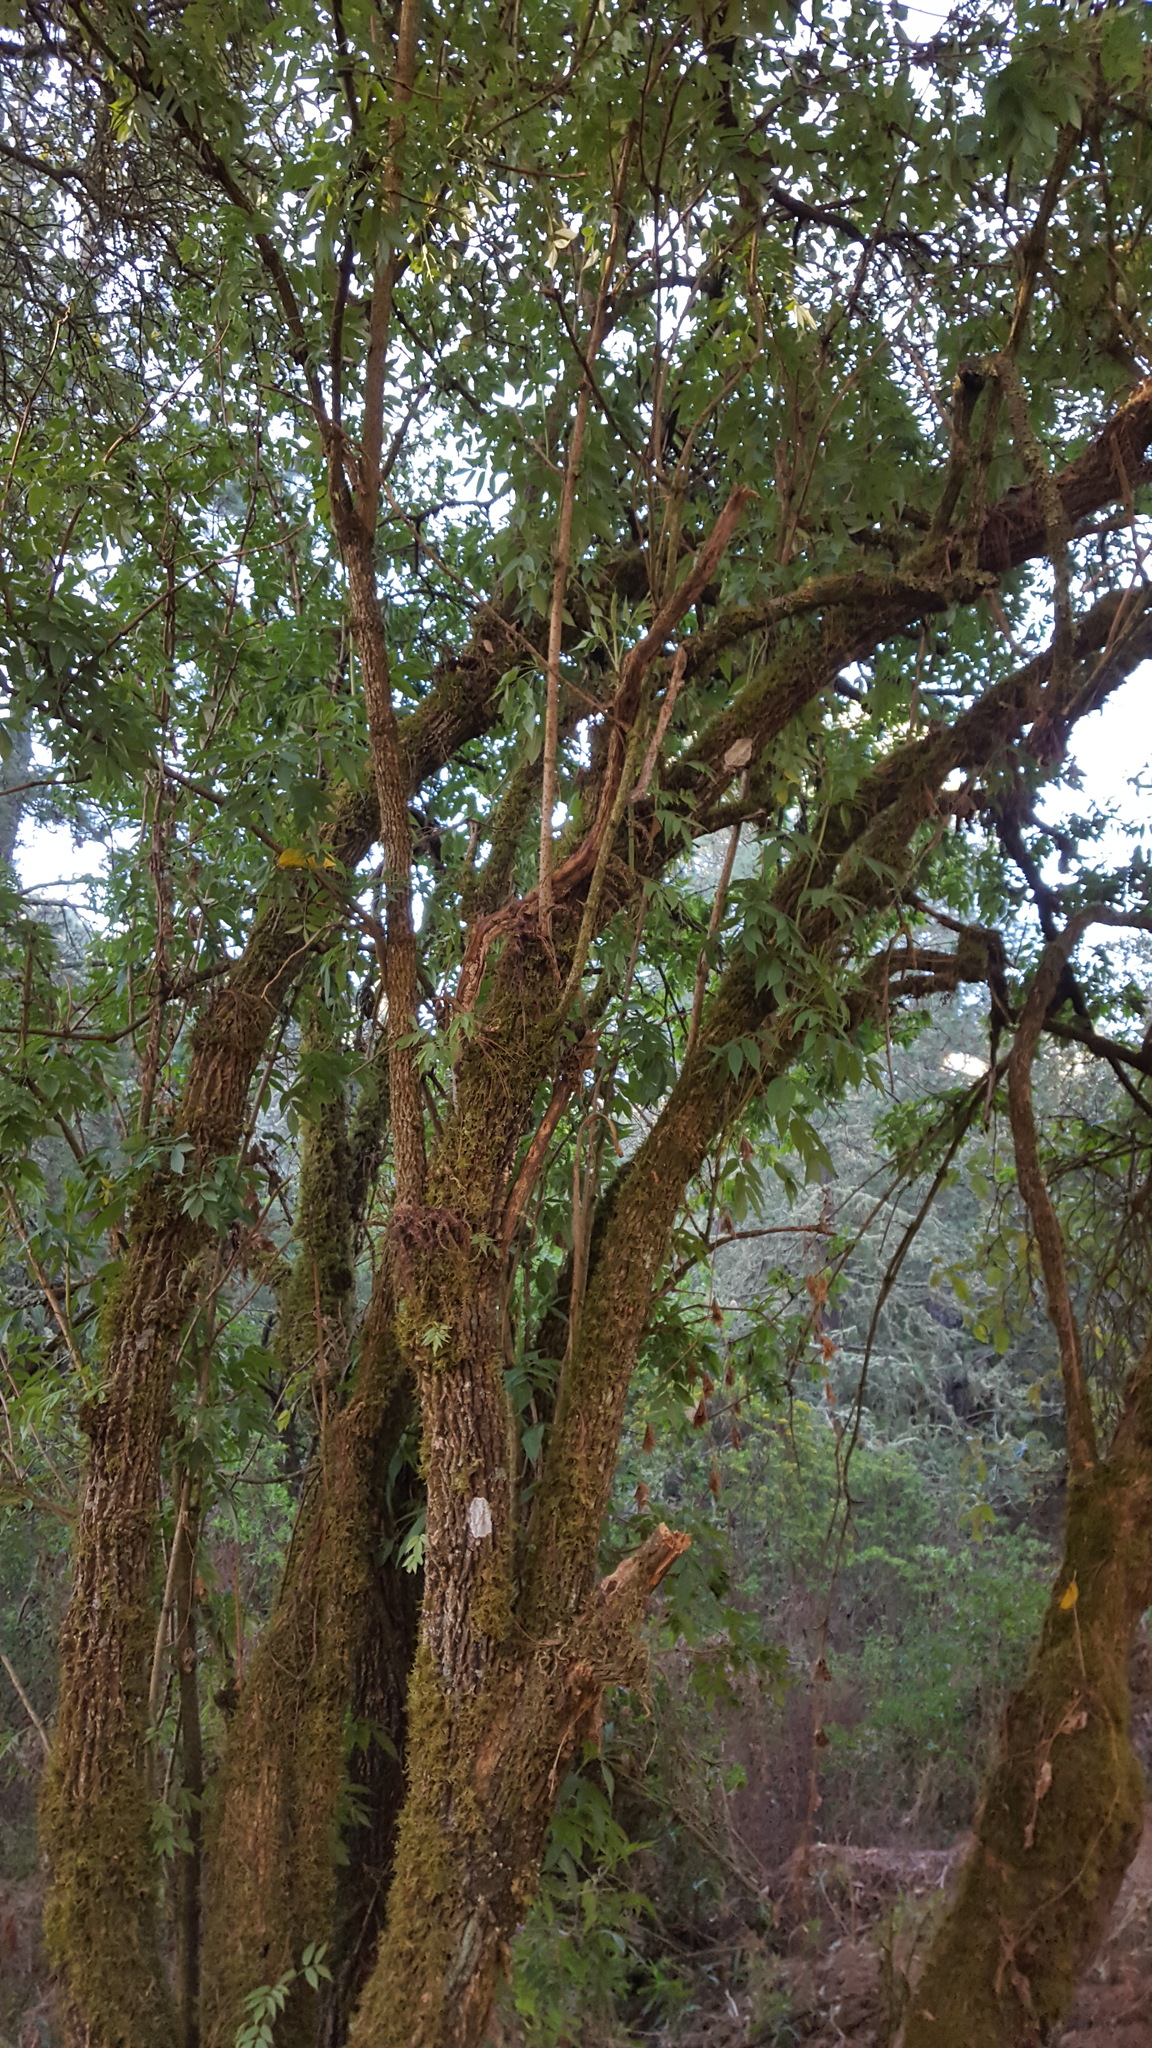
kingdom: Plantae
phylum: Tracheophyta
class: Magnoliopsida
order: Dipsacales
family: Viburnaceae
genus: Sambucus
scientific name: Sambucus canadensis
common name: American elder
